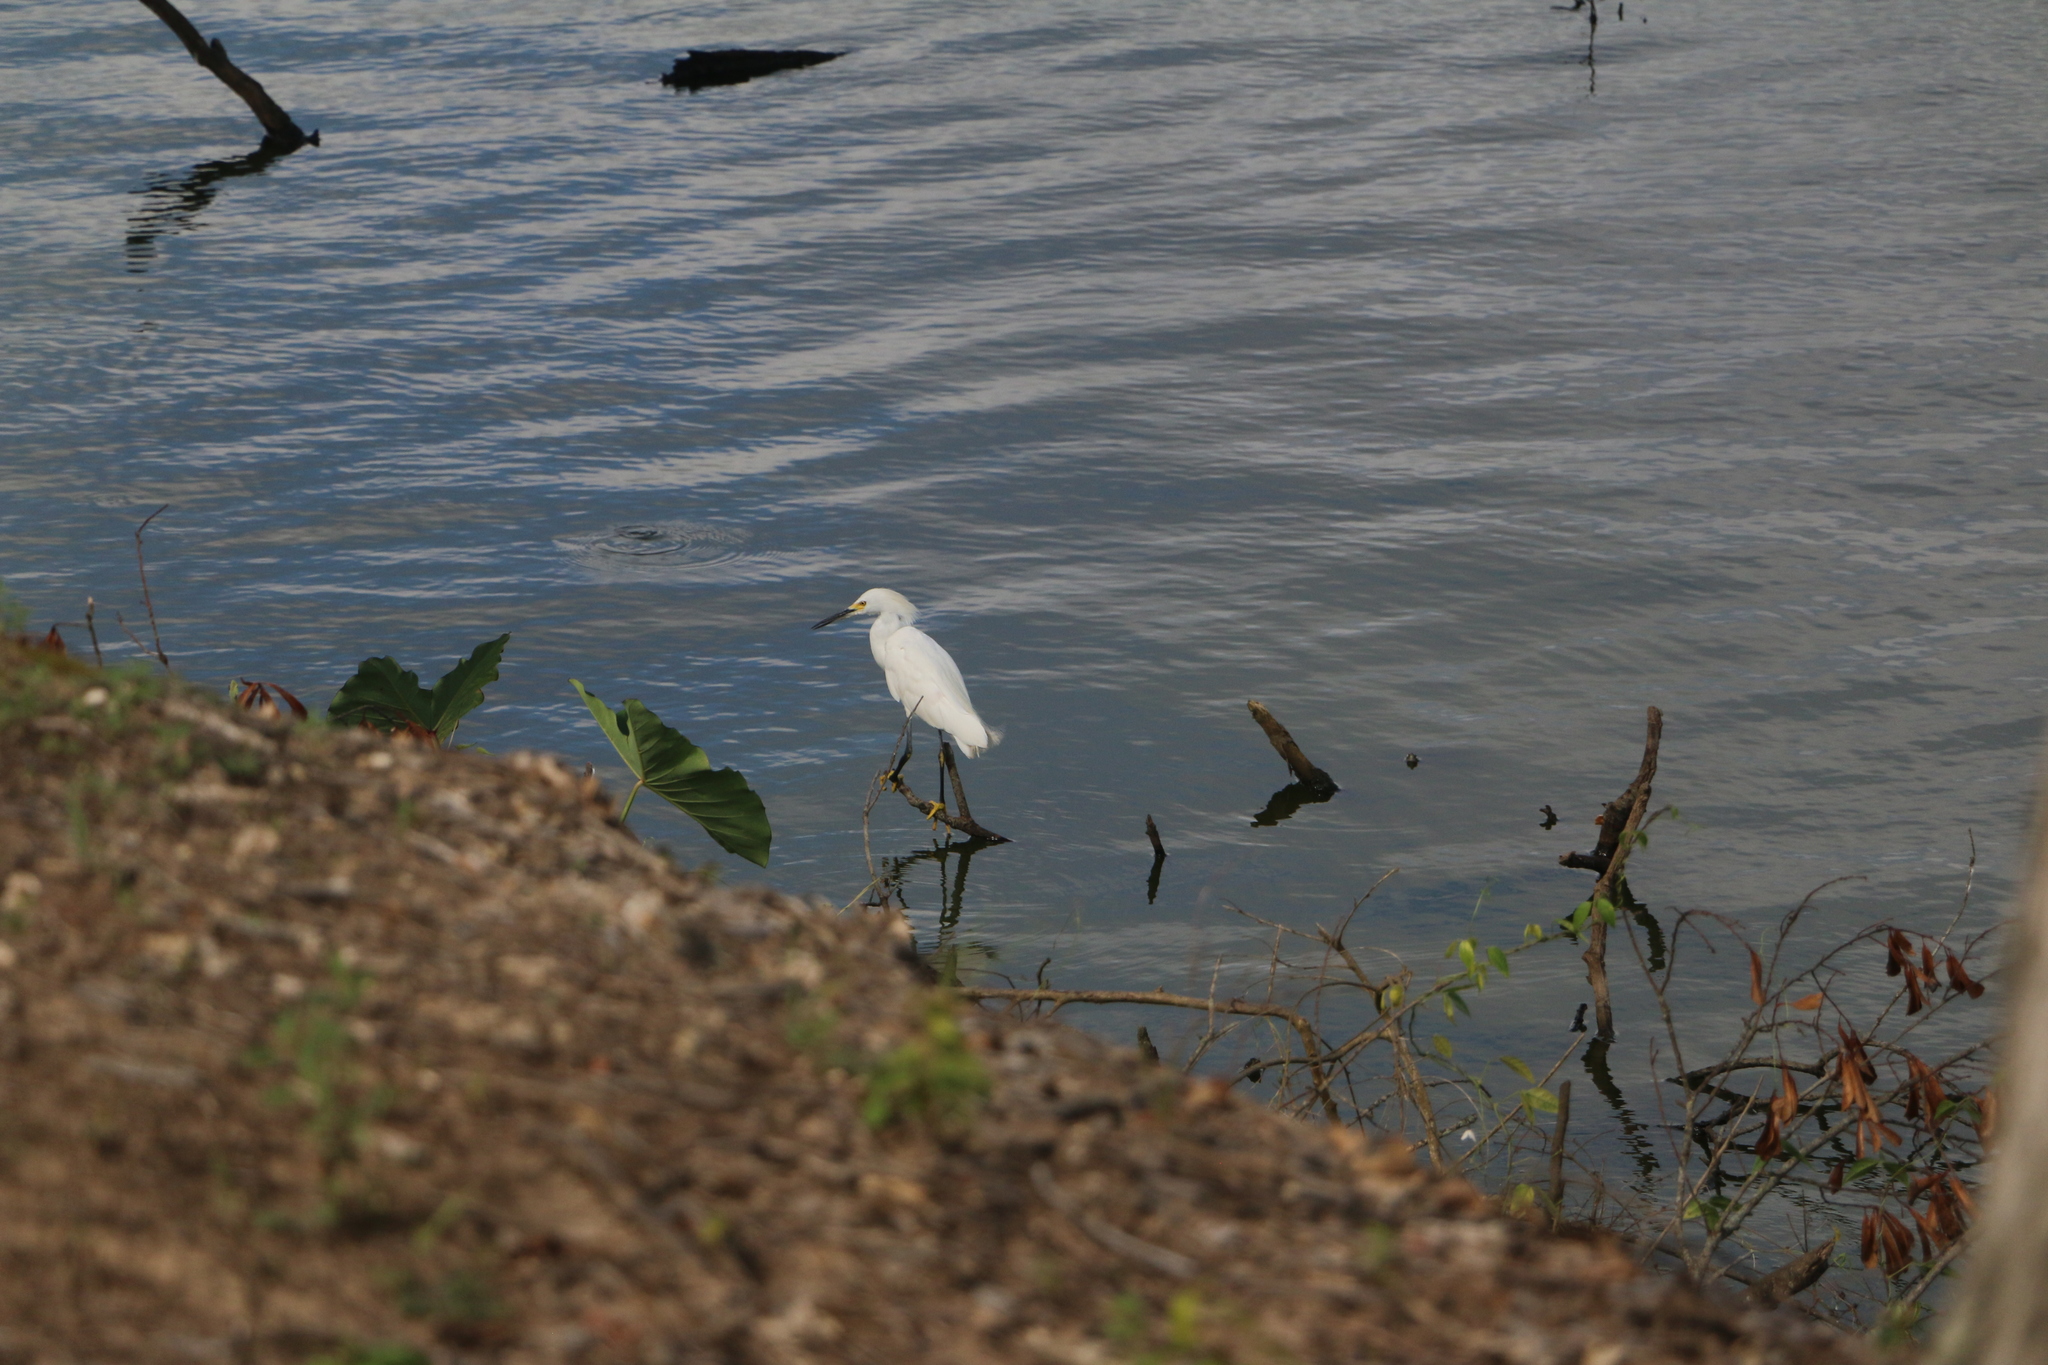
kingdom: Animalia
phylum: Chordata
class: Aves
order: Pelecaniformes
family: Ardeidae
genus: Egretta
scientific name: Egretta thula
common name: Snowy egret
